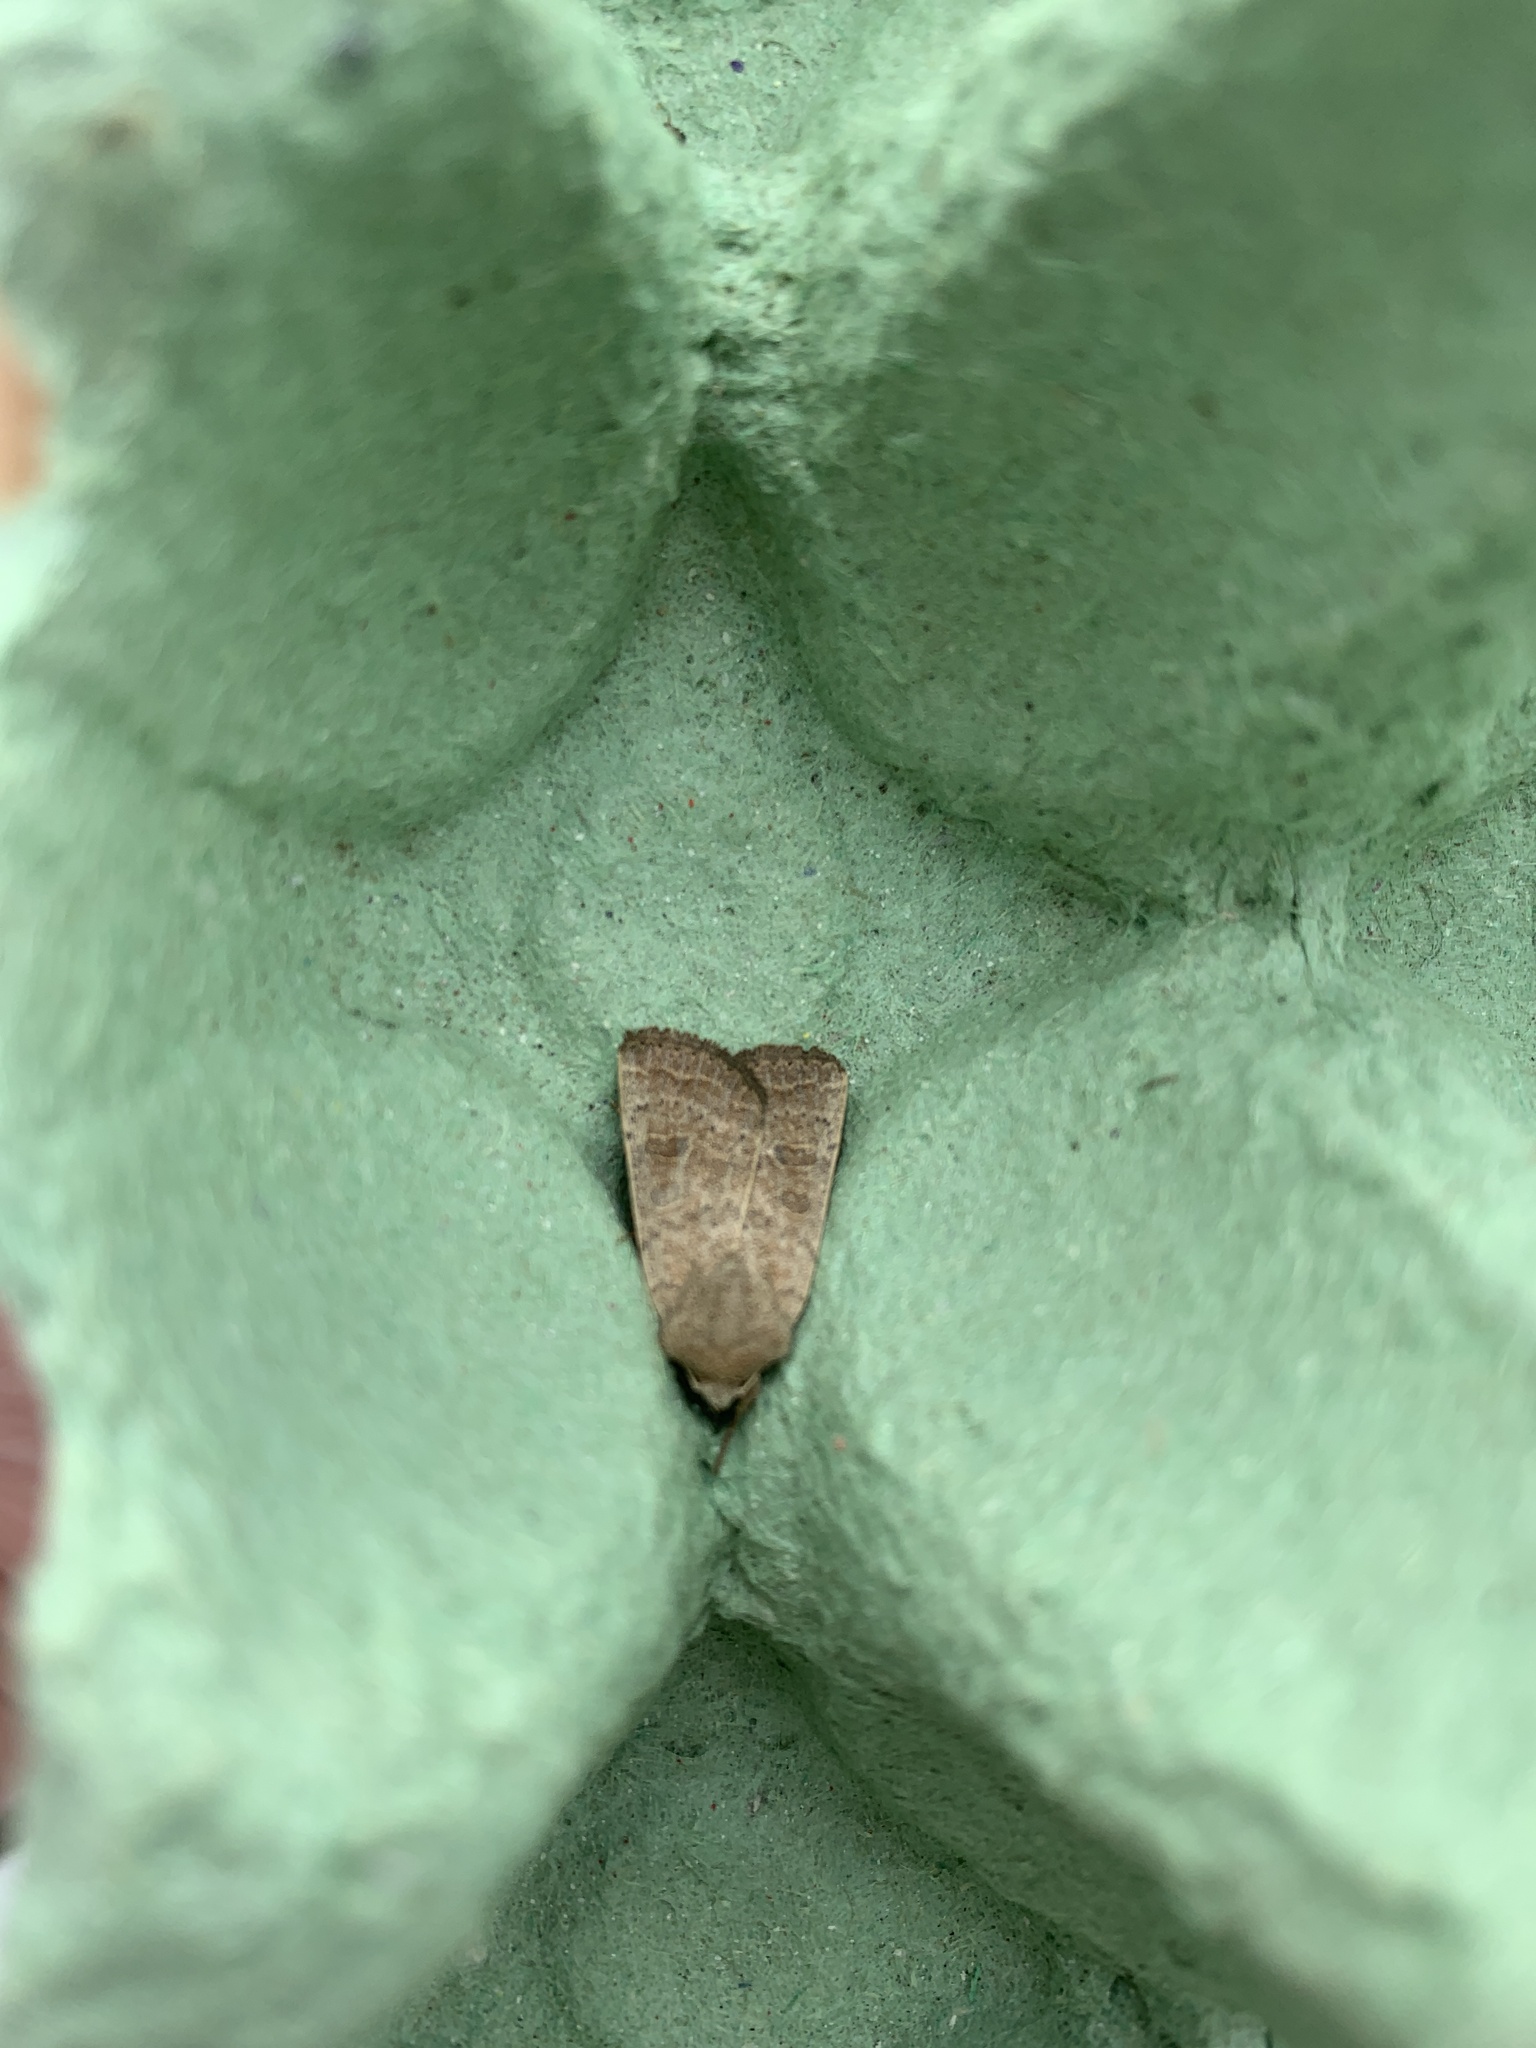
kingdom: Animalia
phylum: Arthropoda
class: Insecta
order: Lepidoptera
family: Noctuidae
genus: Hoplodrina
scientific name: Hoplodrina ambigua
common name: Vine's rustic
